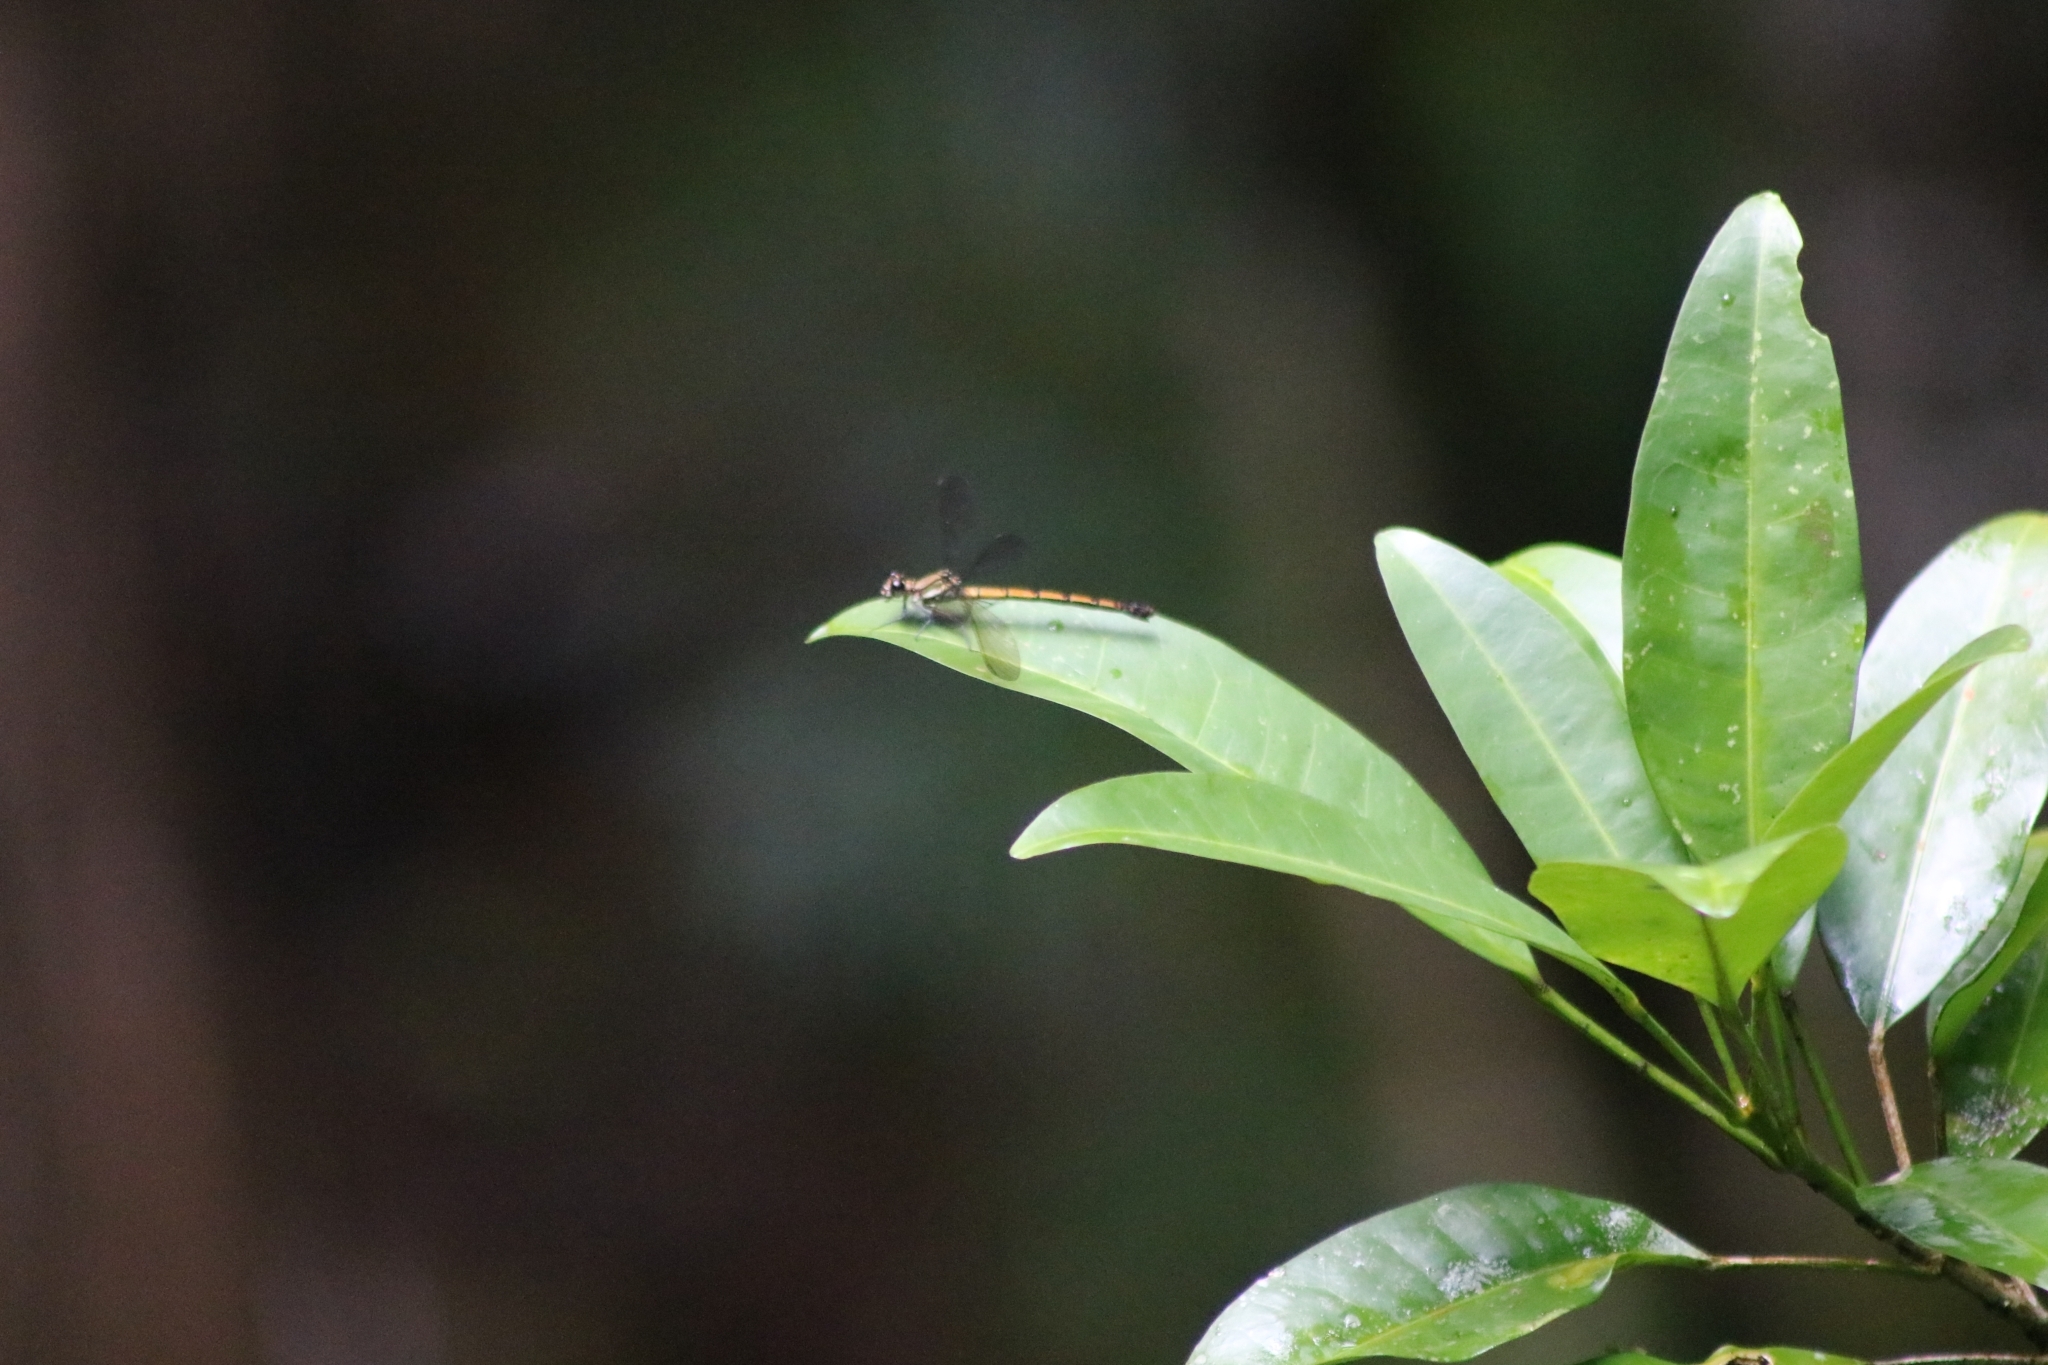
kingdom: Animalia
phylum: Arthropoda
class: Insecta
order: Odonata
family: Lestoideidae
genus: Diphlebia
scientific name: Diphlebia euphoeoides
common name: Tropical rockmaster
